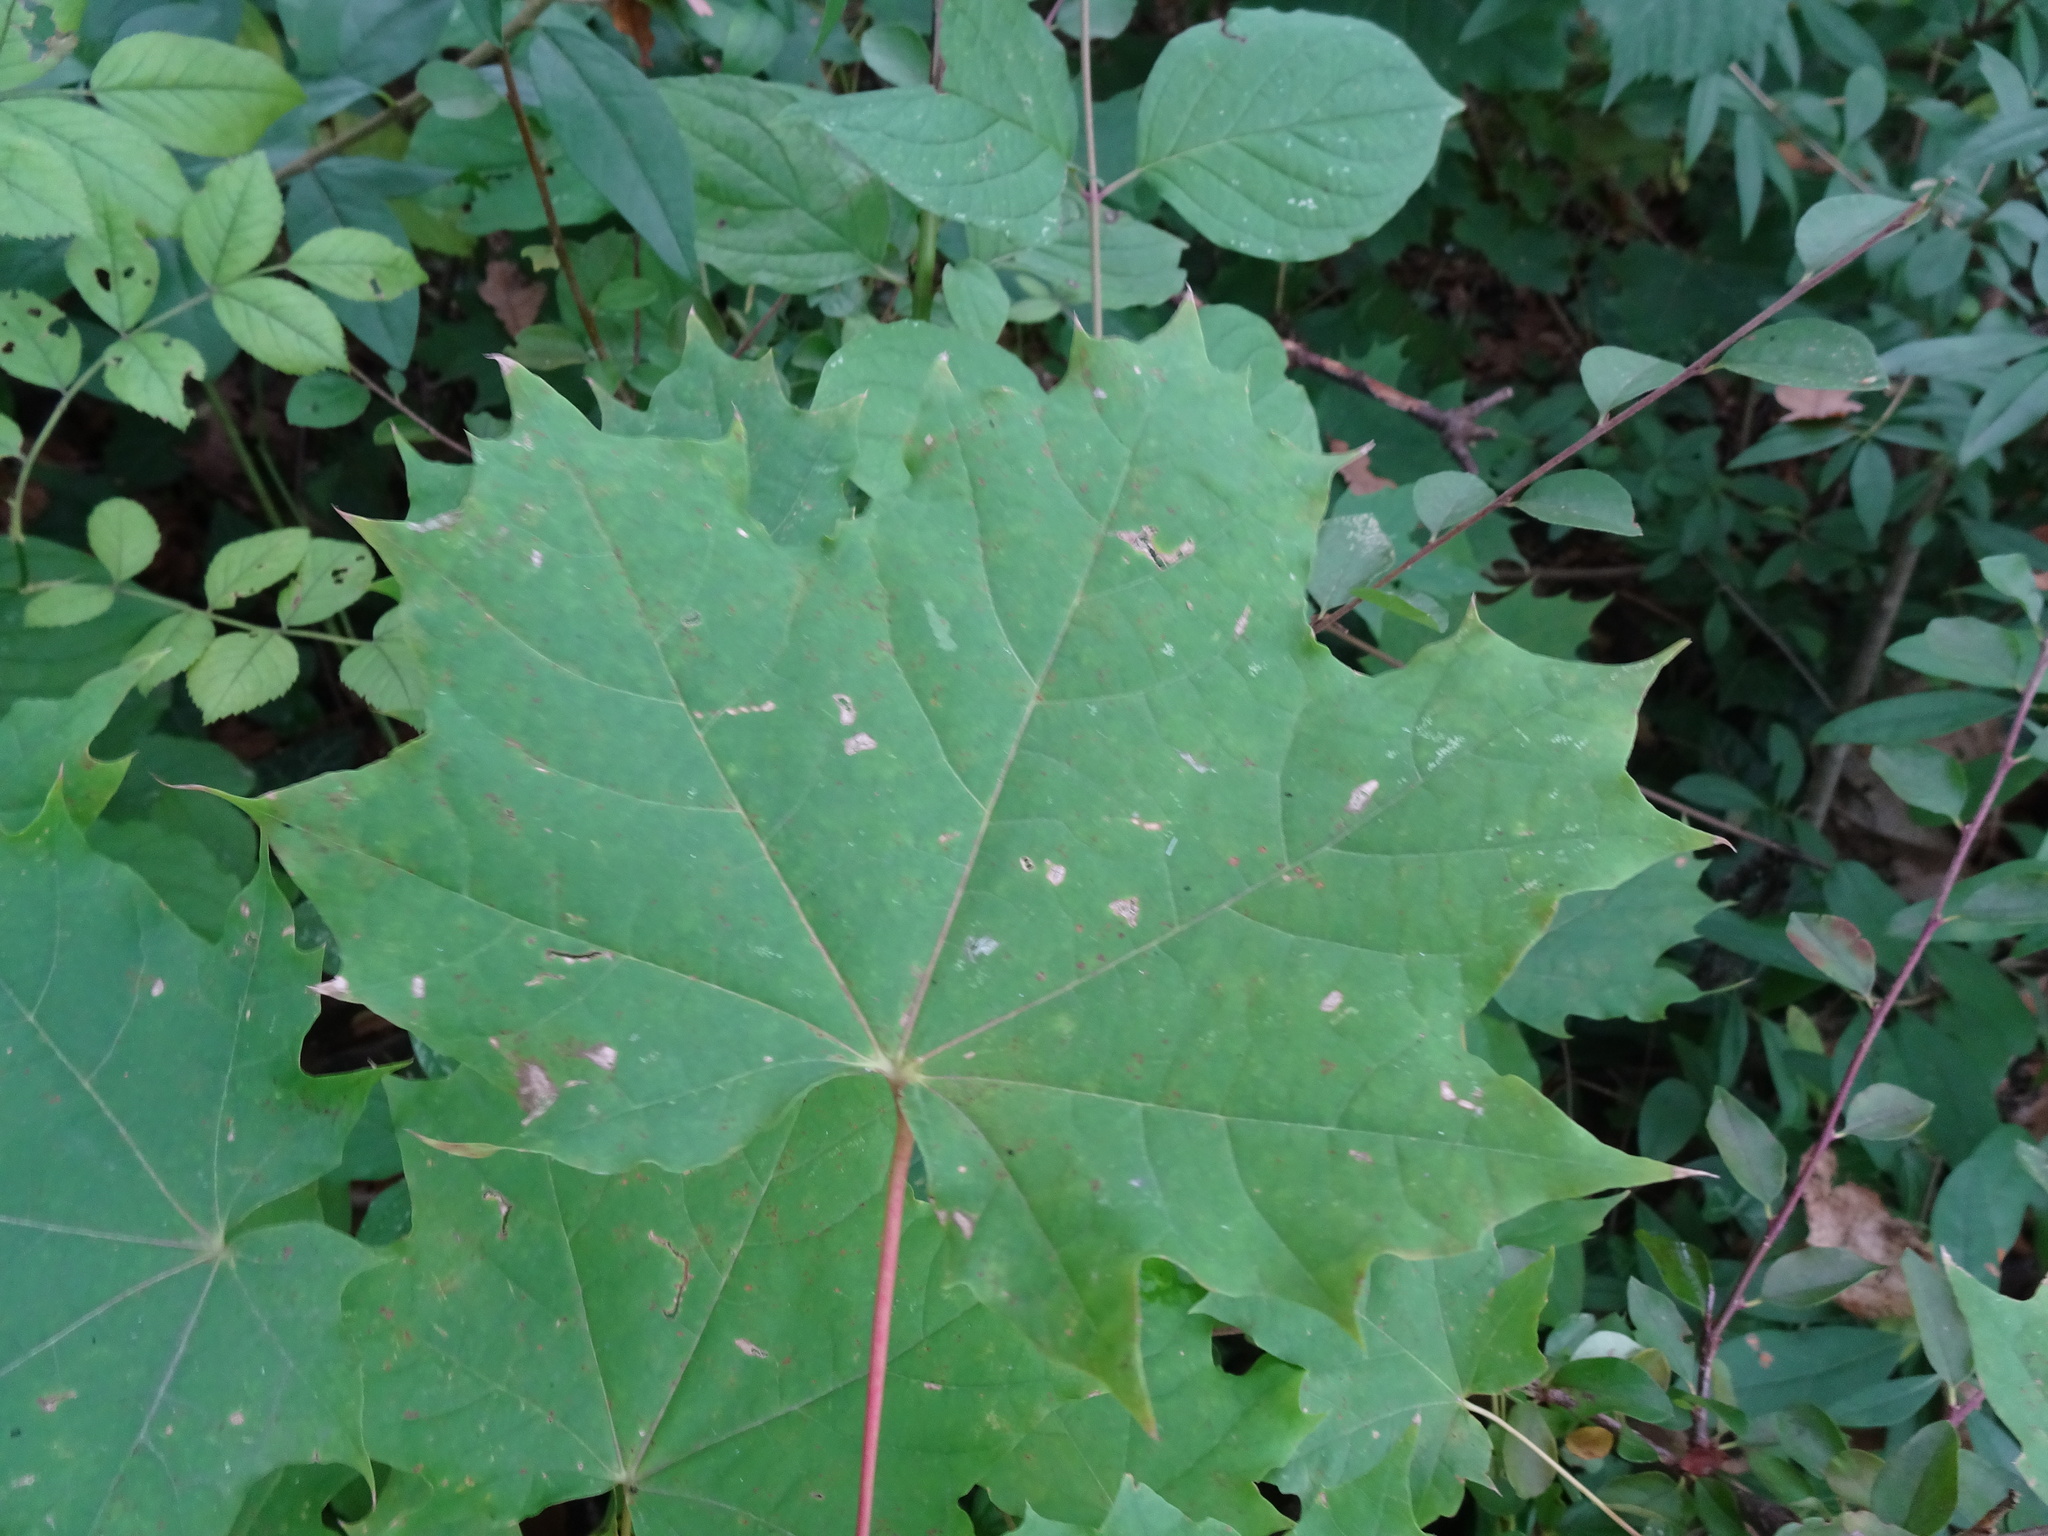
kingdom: Plantae
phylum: Tracheophyta
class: Magnoliopsida
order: Sapindales
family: Sapindaceae
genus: Acer
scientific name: Acer platanoides
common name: Norway maple
